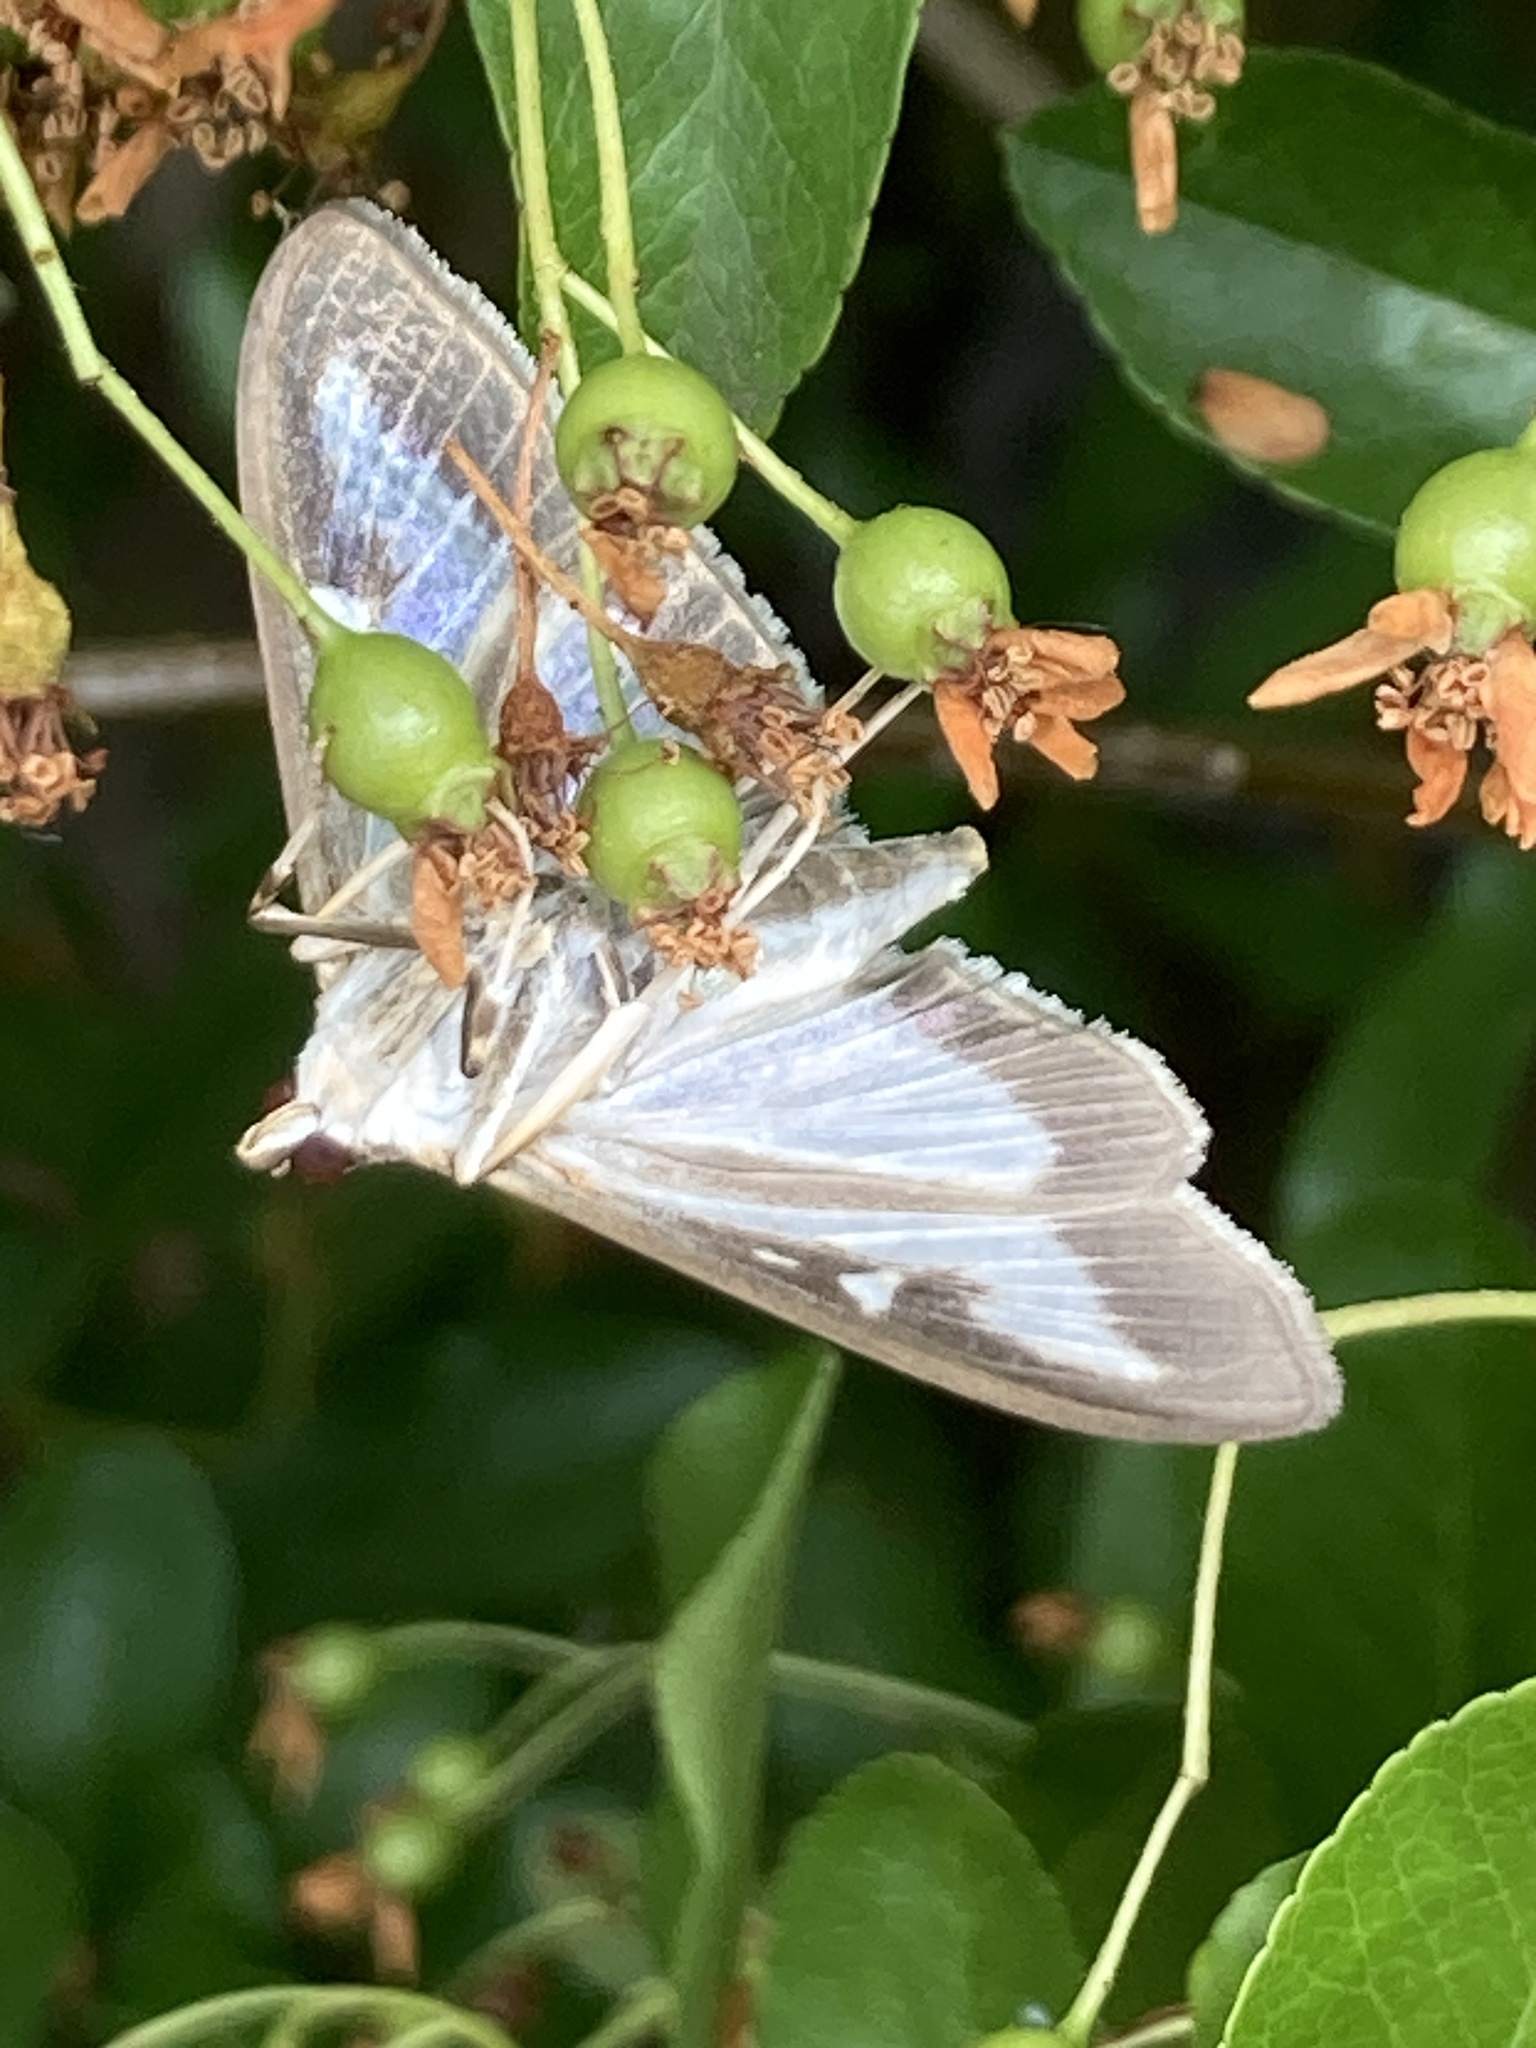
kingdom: Animalia
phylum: Arthropoda
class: Insecta
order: Lepidoptera
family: Crambidae
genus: Cydalima
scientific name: Cydalima perspectalis
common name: Box tree moth
